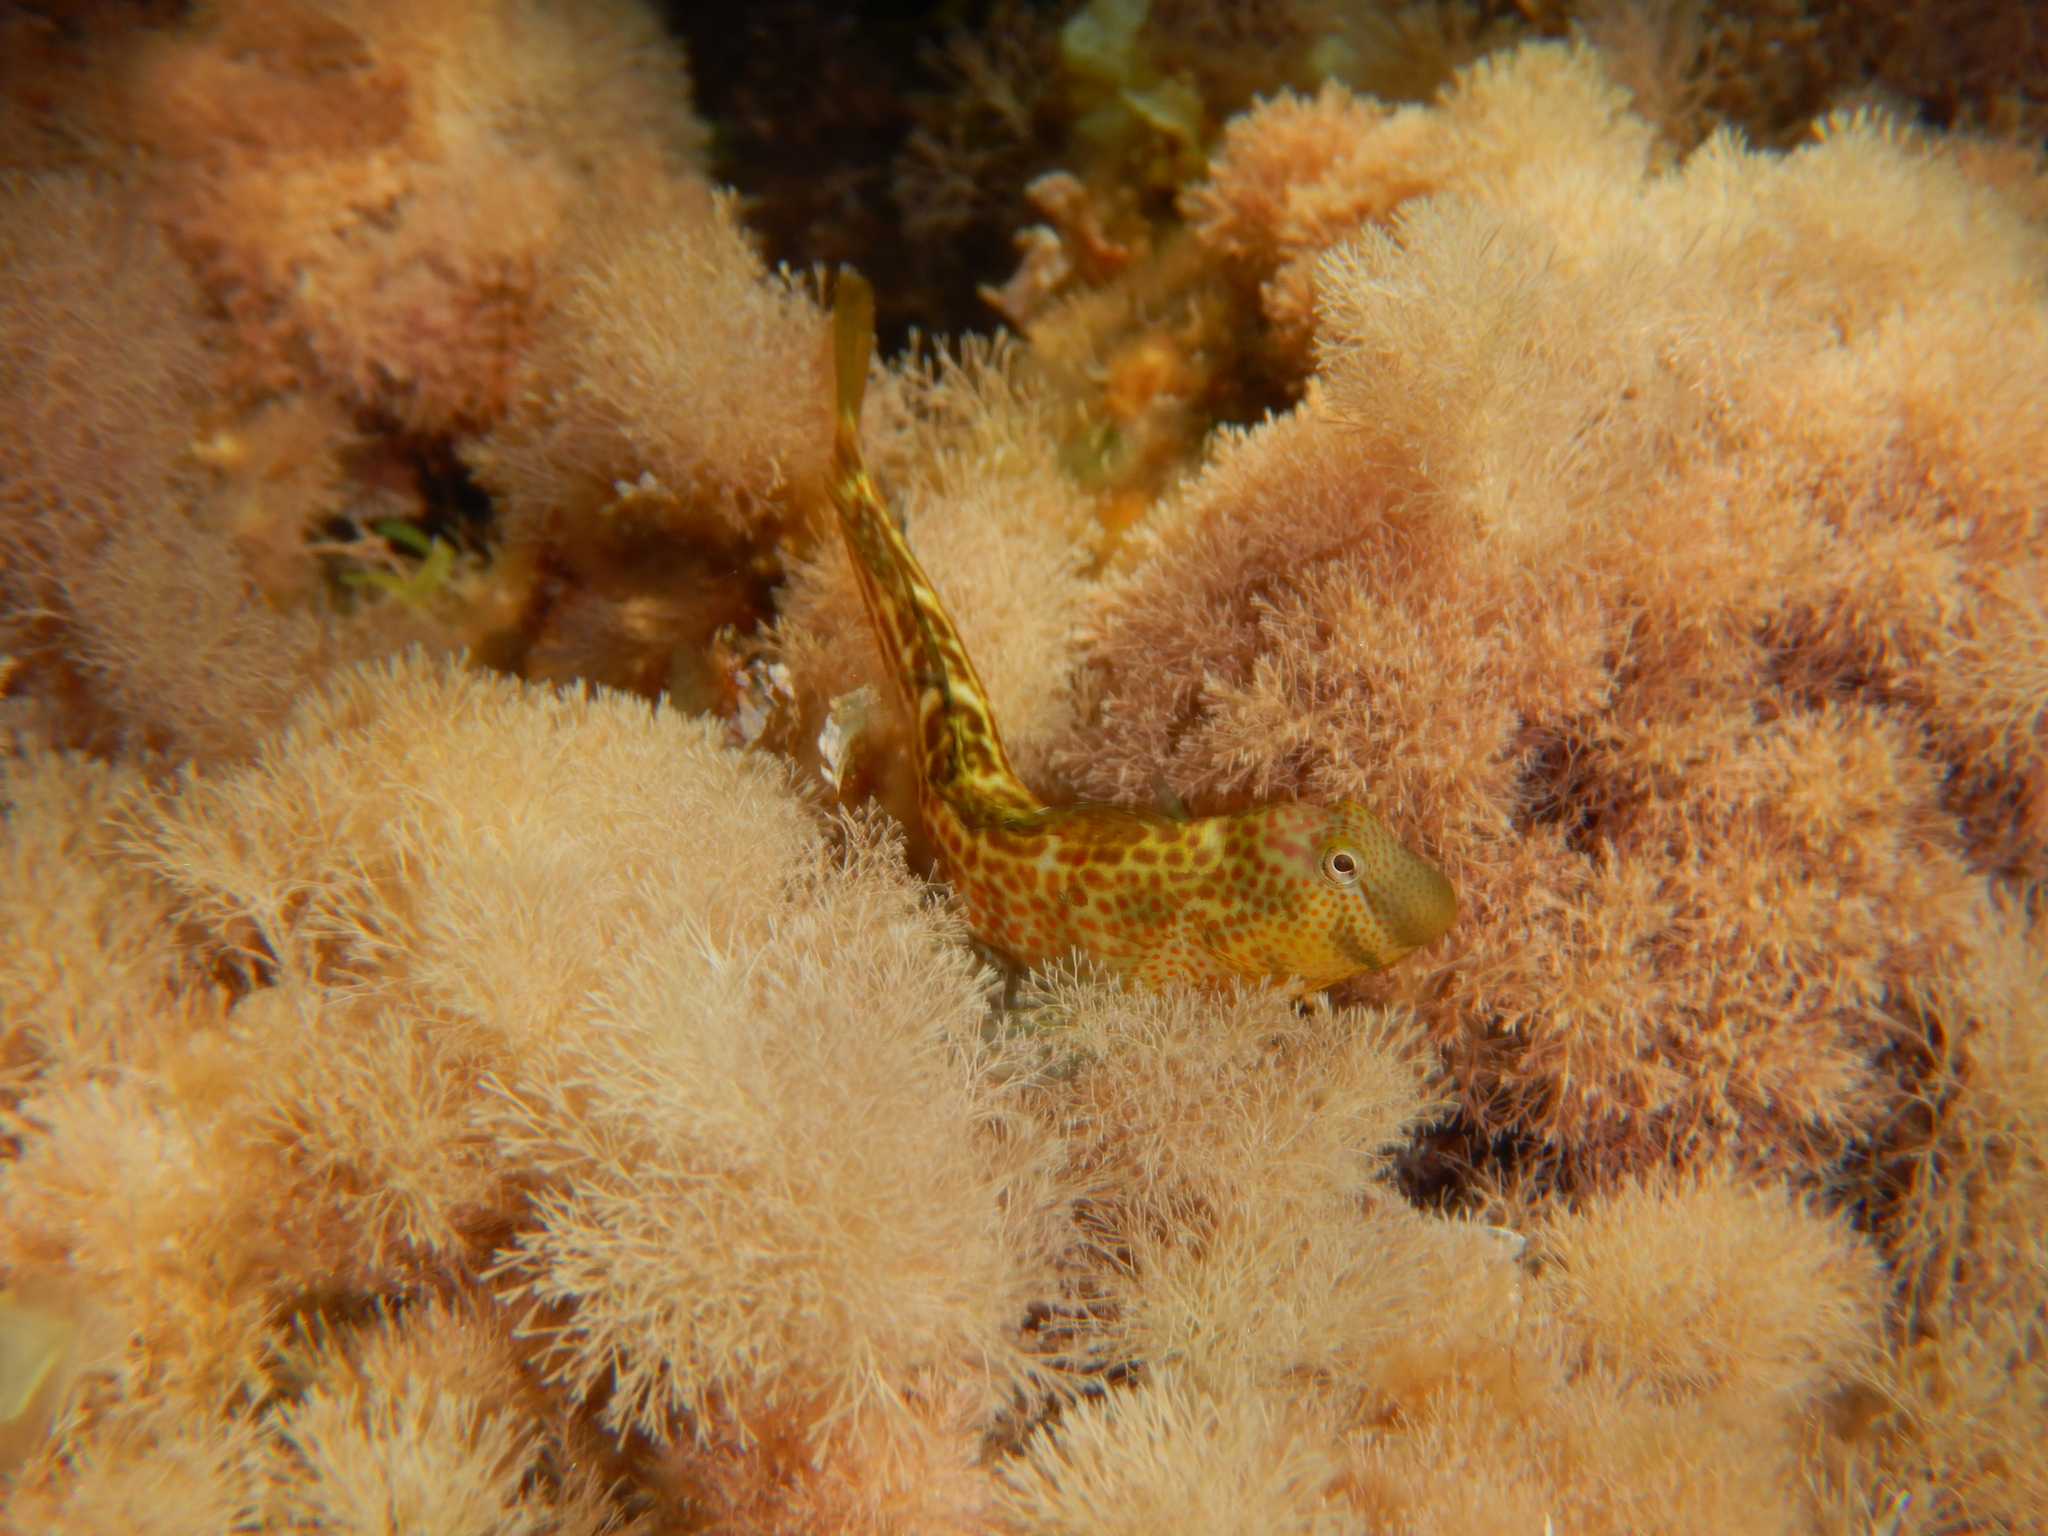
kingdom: Animalia
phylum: Chordata
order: Perciformes
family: Blenniidae
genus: Microlipophrys
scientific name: Microlipophrys canevae
